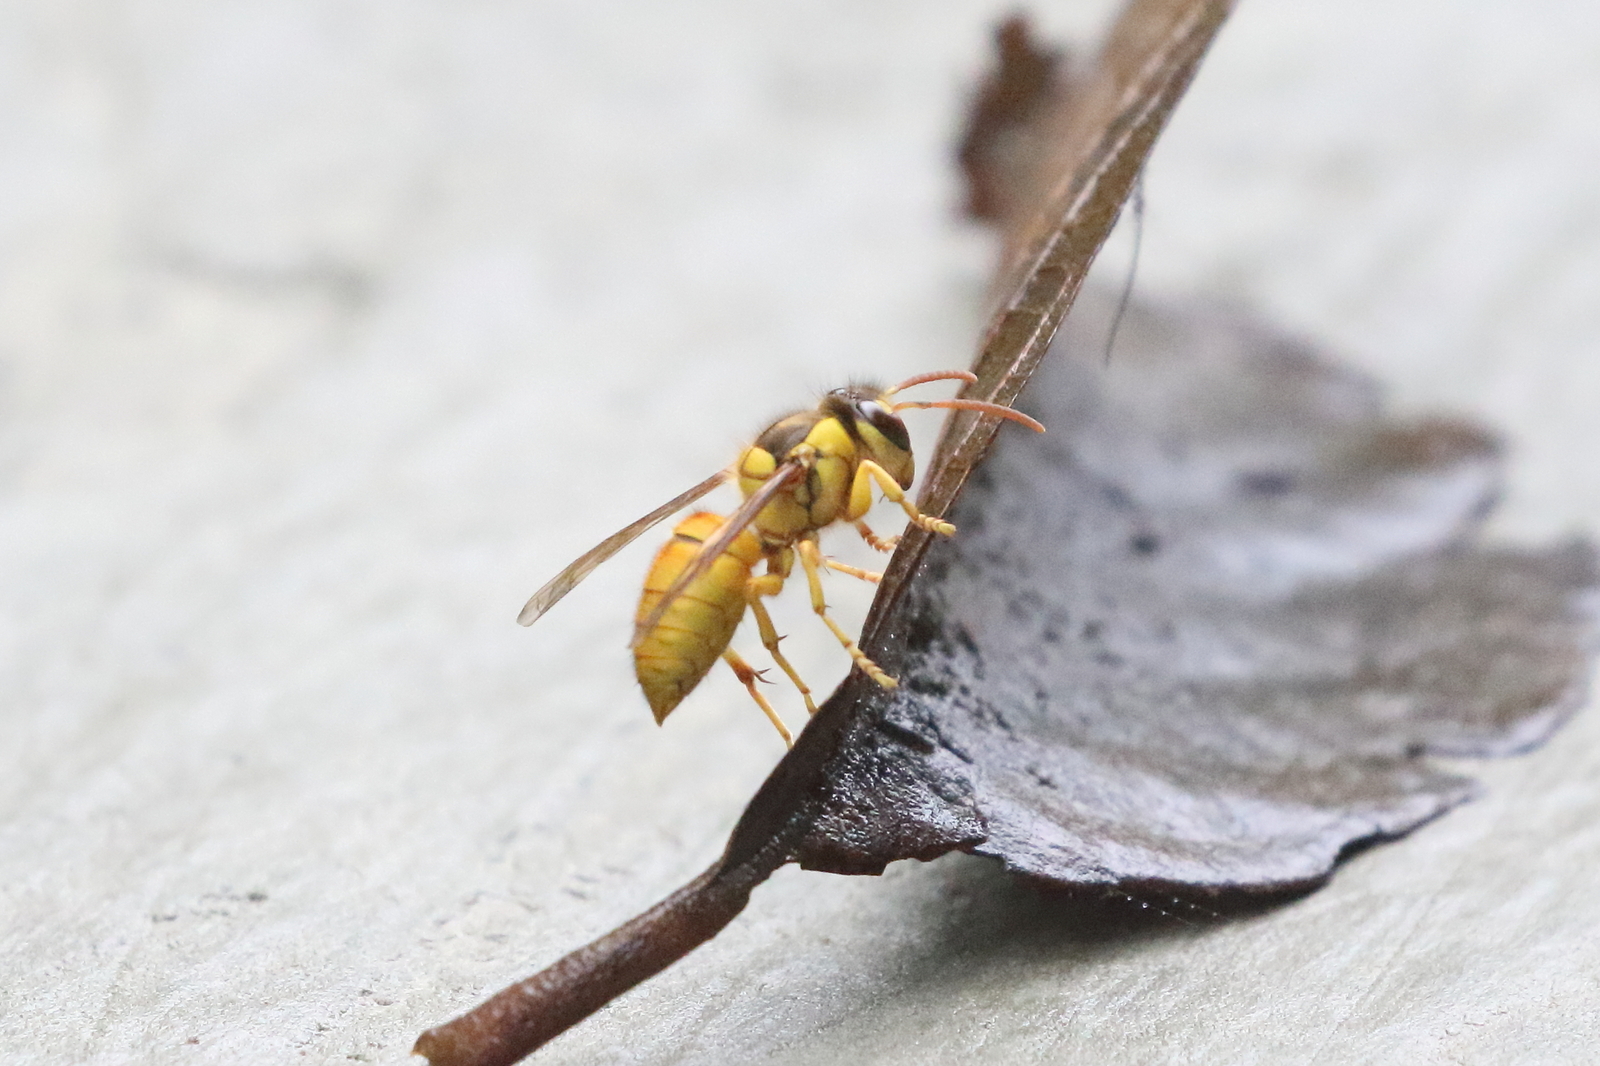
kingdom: Animalia
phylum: Arthropoda
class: Insecta
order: Hymenoptera
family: Vespidae
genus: Vespa
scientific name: Vespa bicolor
